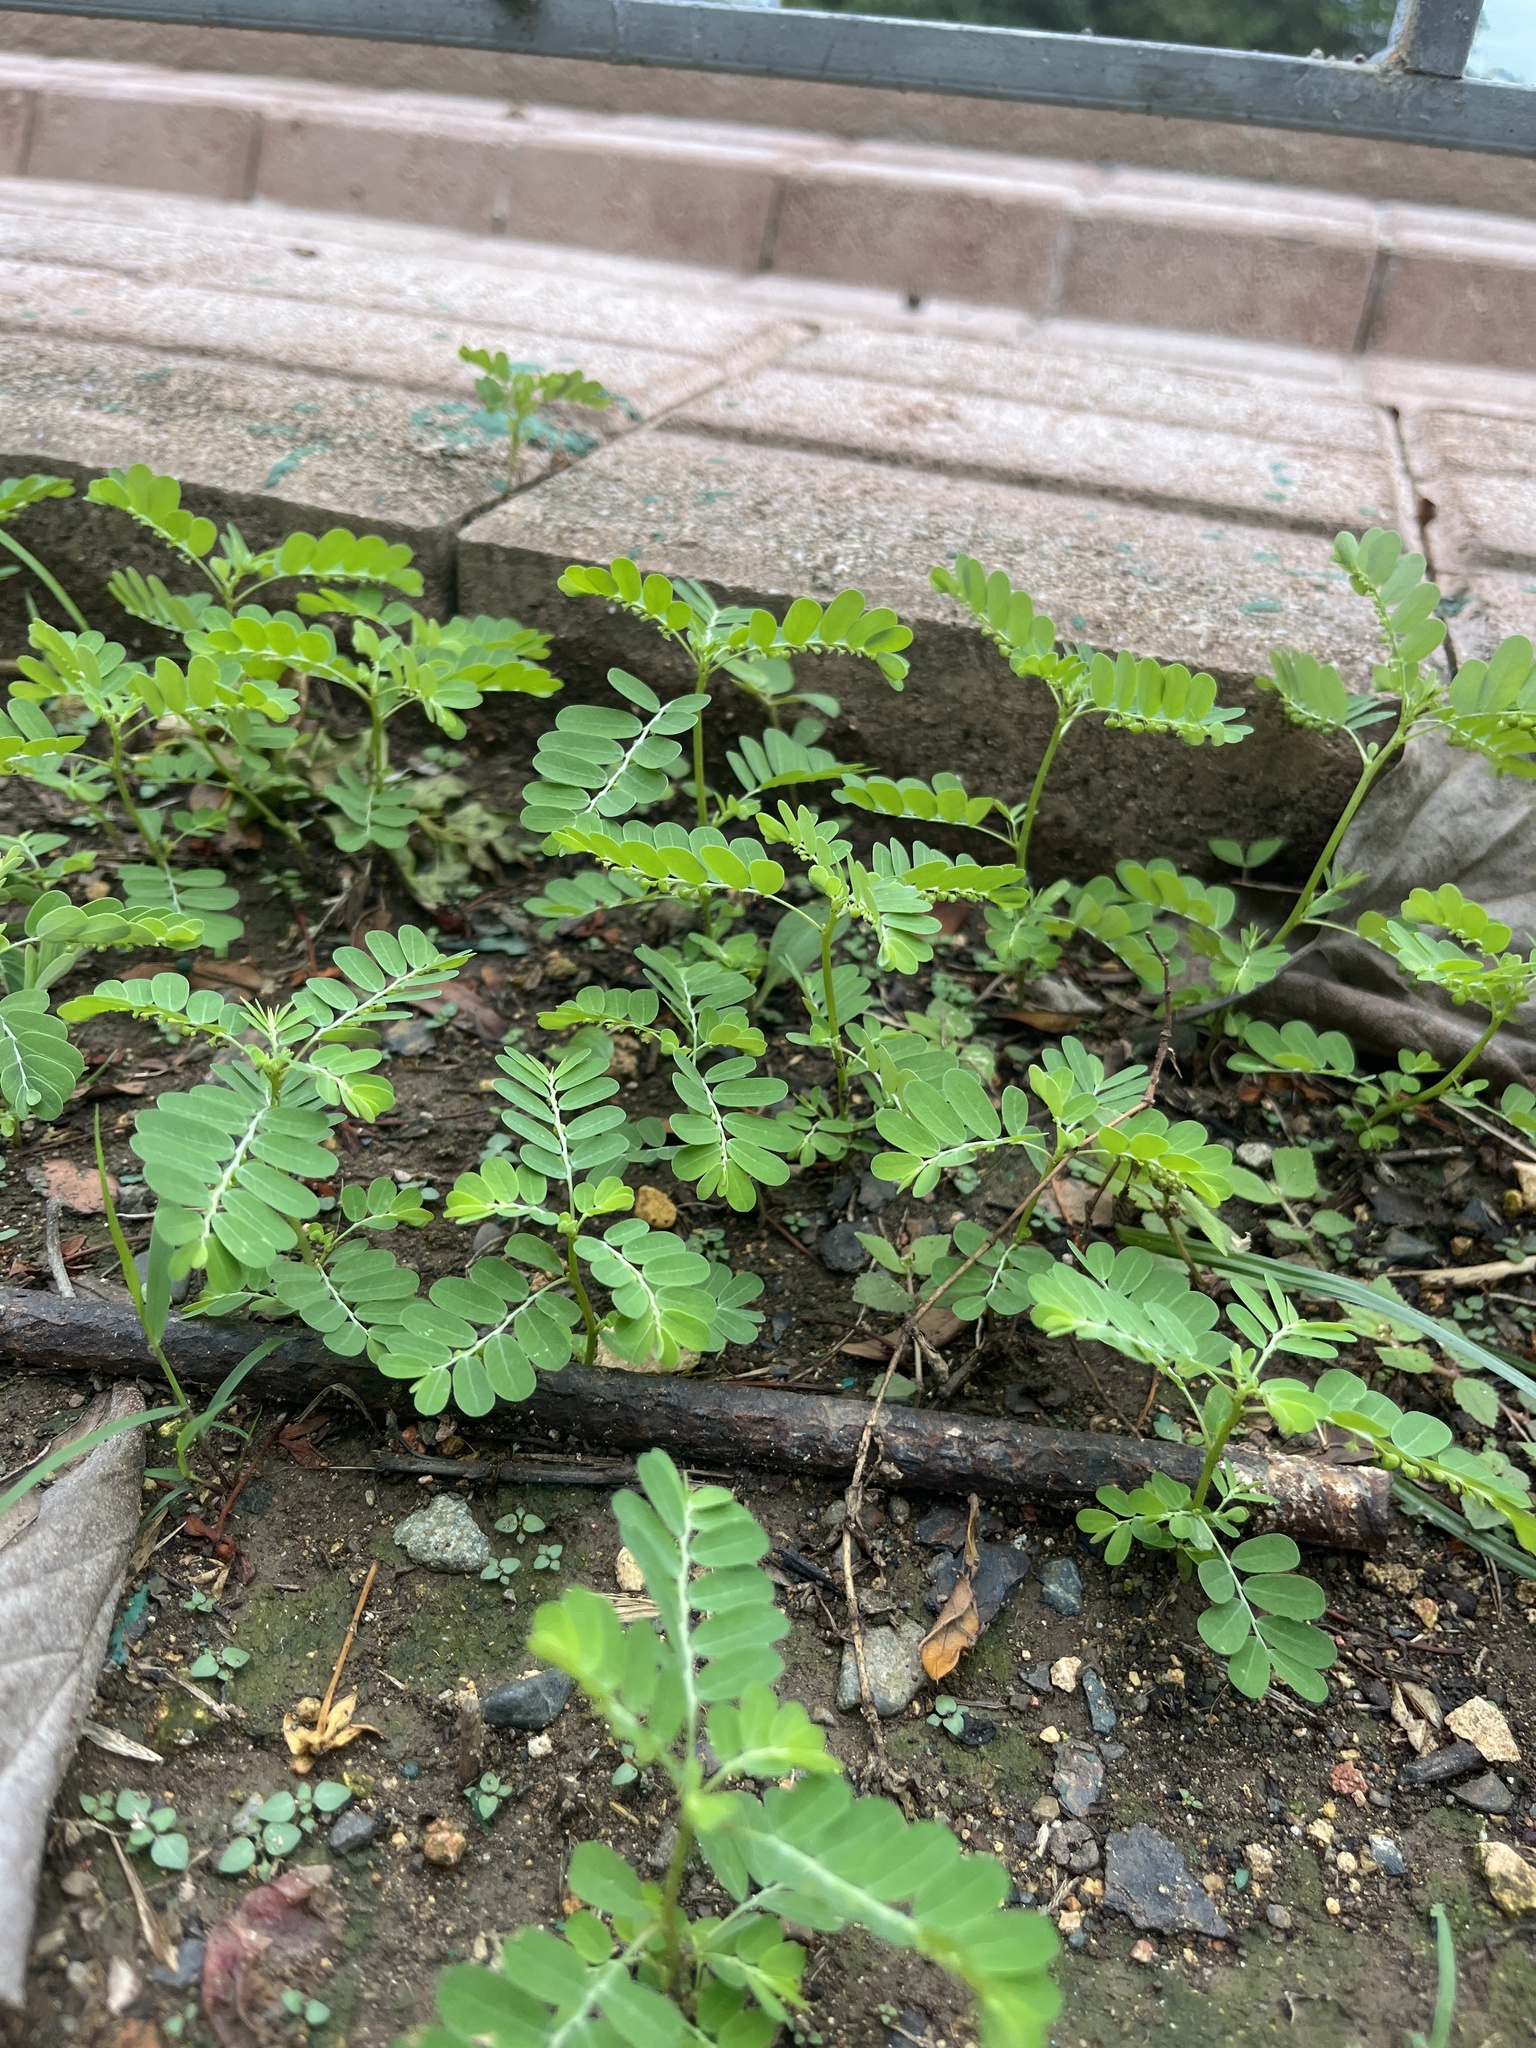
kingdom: Plantae
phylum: Tracheophyta
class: Magnoliopsida
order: Malpighiales
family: Phyllanthaceae
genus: Phyllanthus
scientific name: Phyllanthus amarus
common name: Carry me seed
